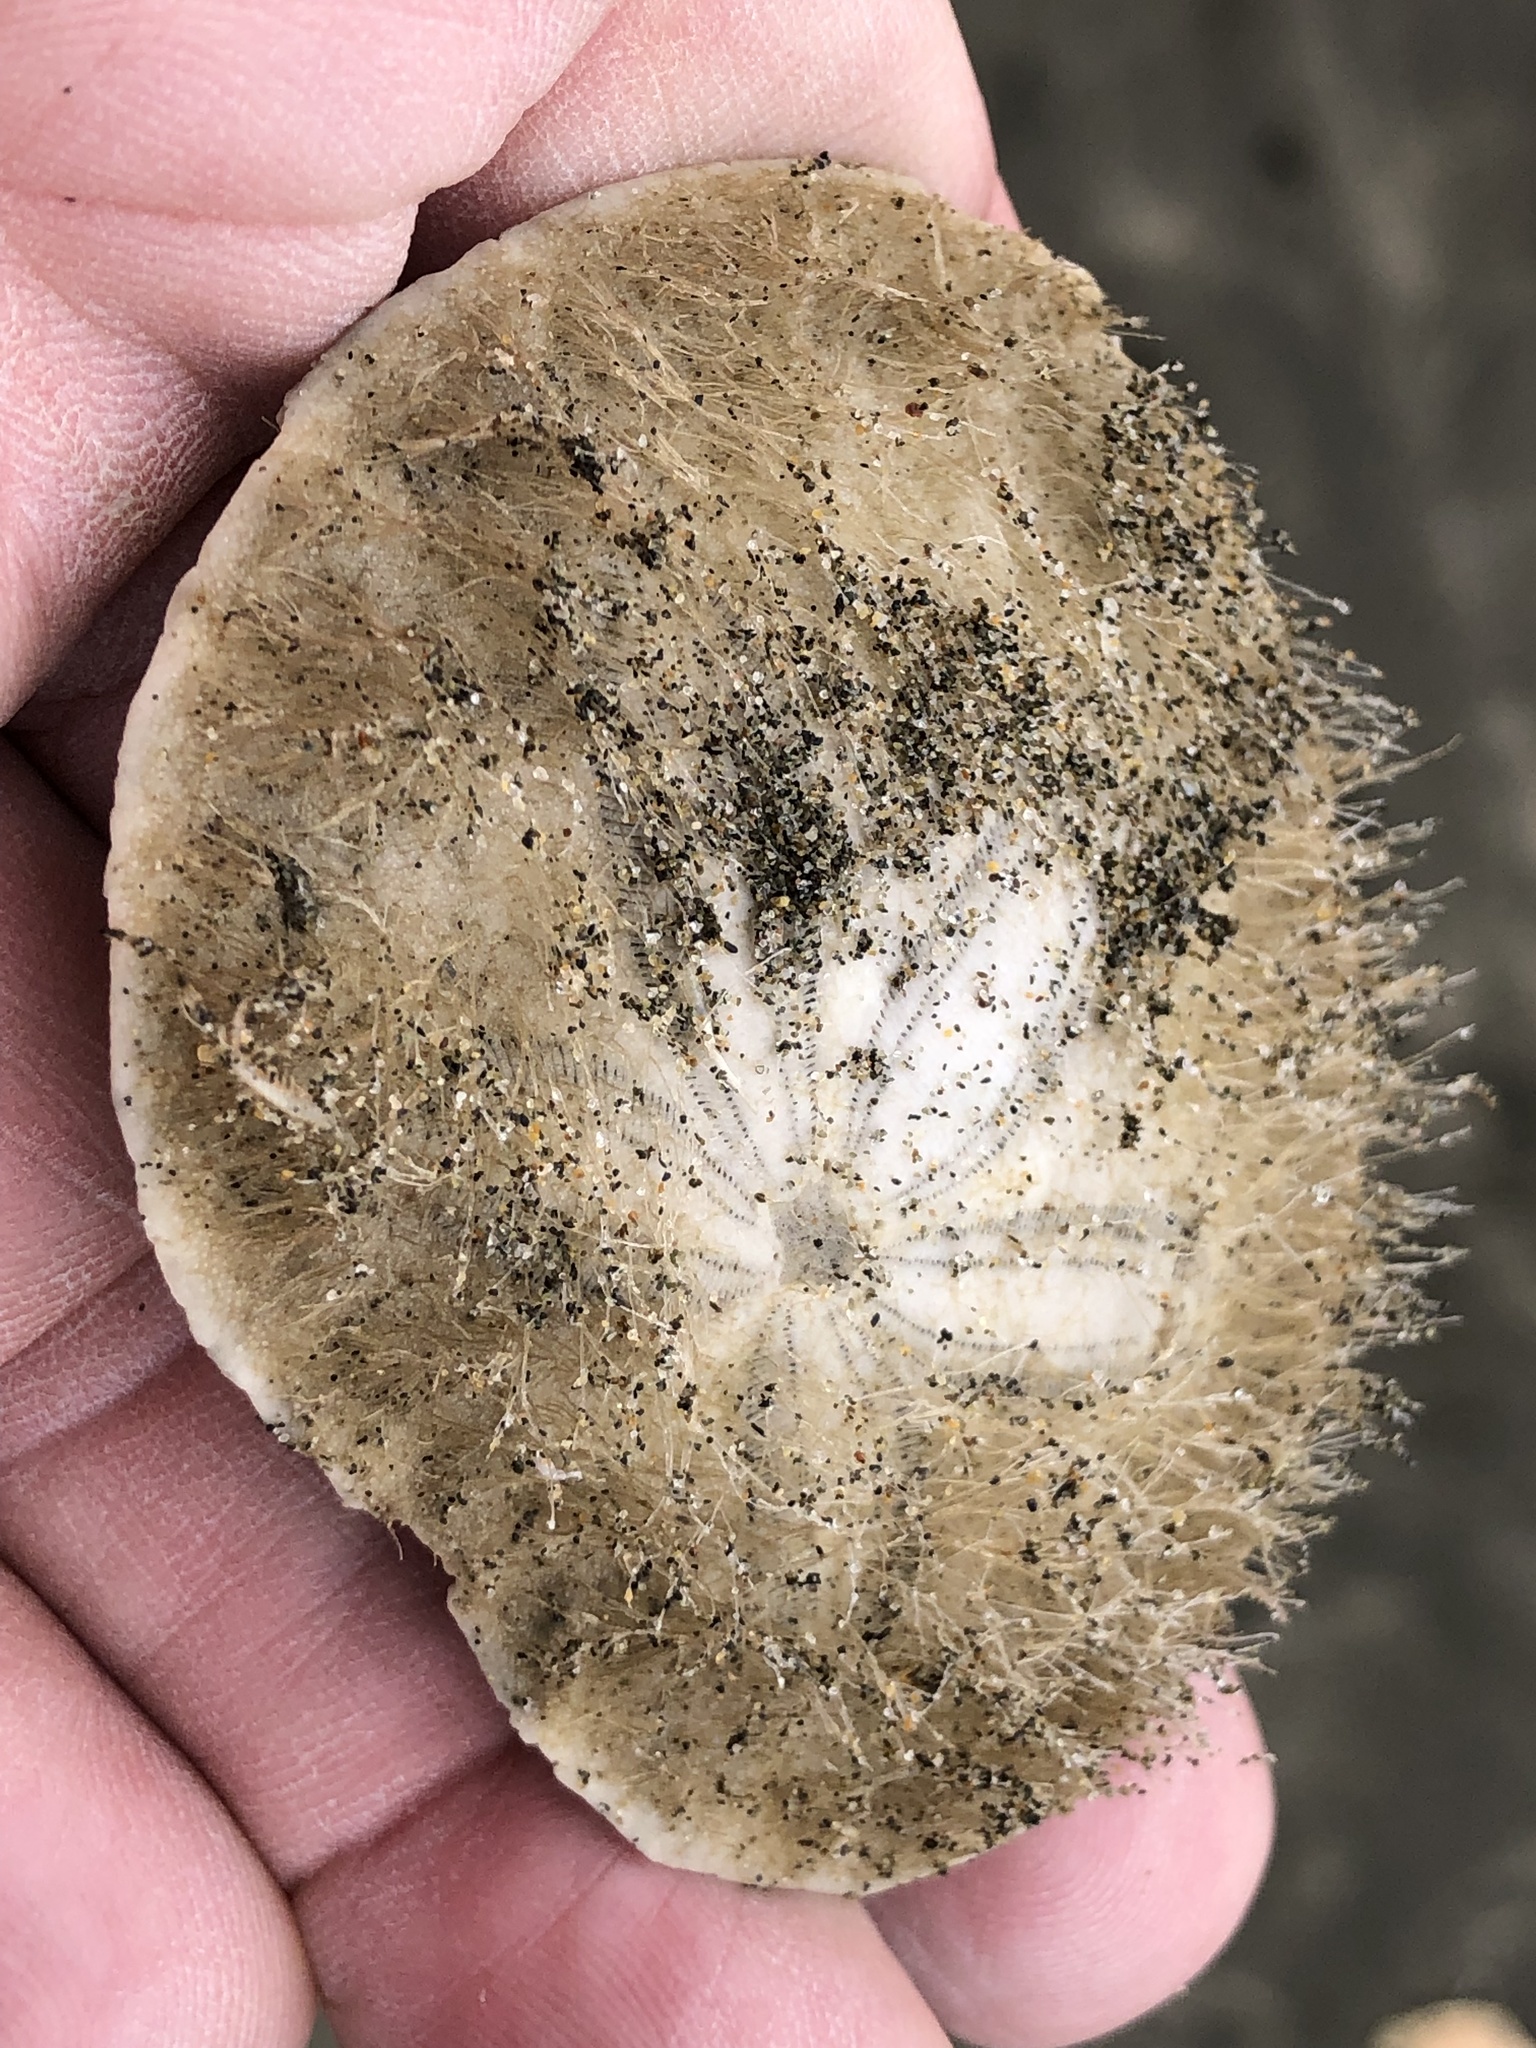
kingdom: Animalia
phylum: Echinodermata
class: Echinoidea
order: Echinolampadacea
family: Dendrasteridae
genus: Dendraster
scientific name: Dendraster excentricus
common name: Eccentric sand dollar sea urchin
